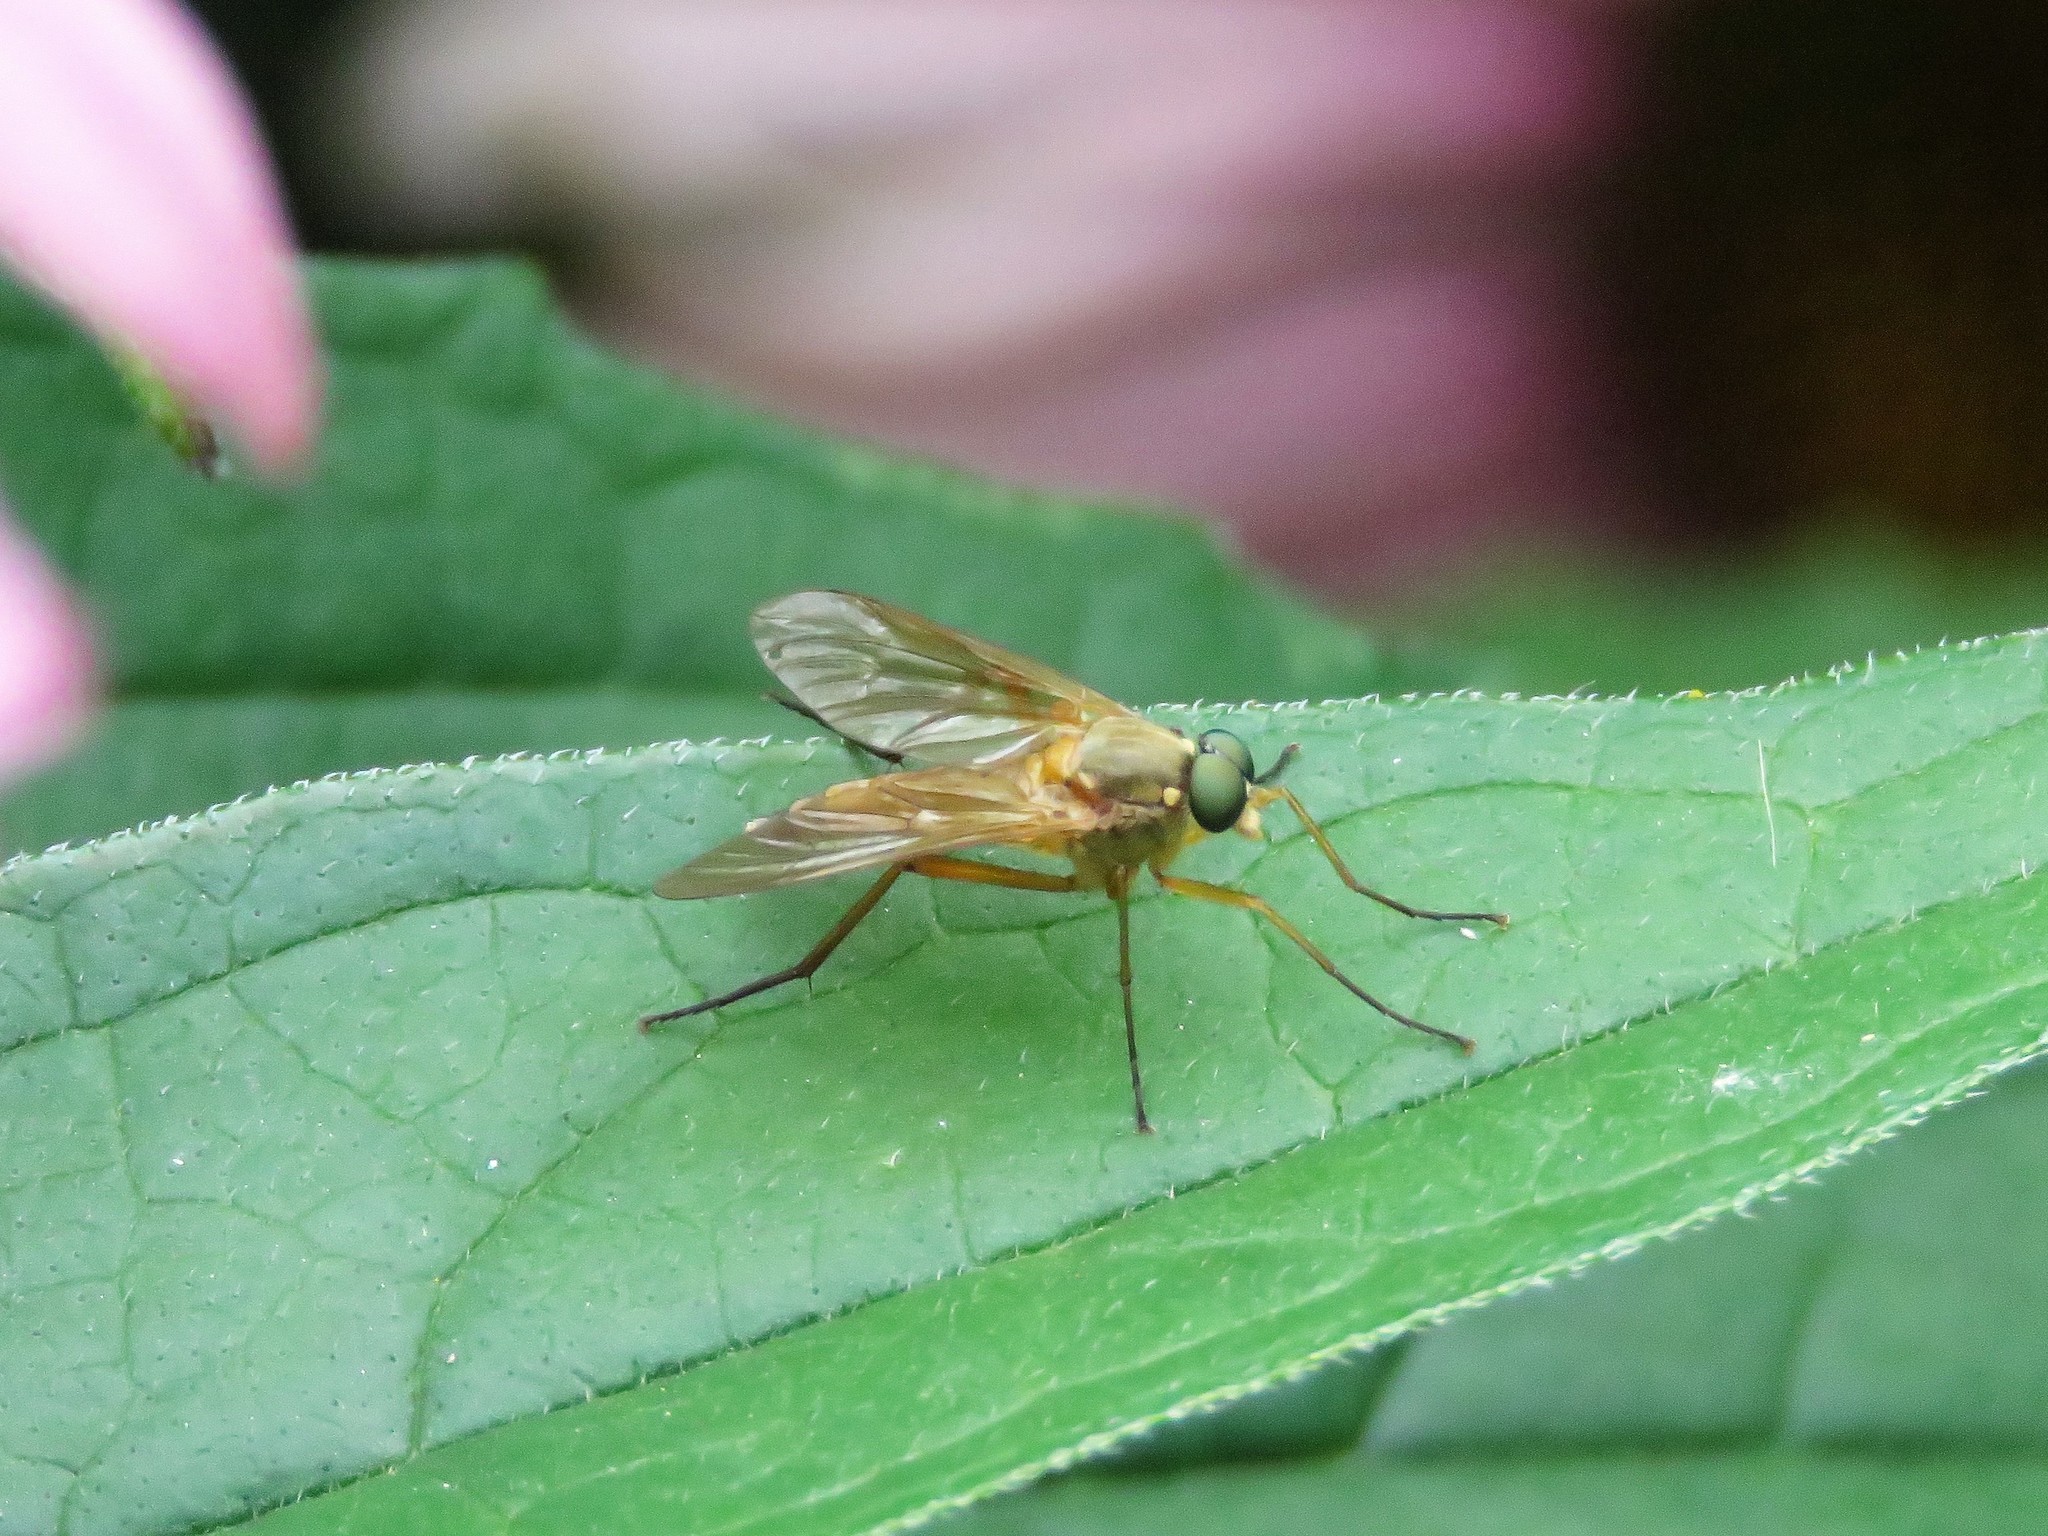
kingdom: Animalia
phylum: Arthropoda
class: Insecta
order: Diptera
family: Rhagionidae
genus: Rhagio
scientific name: Rhagio tringaria
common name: Marsh snipefly
